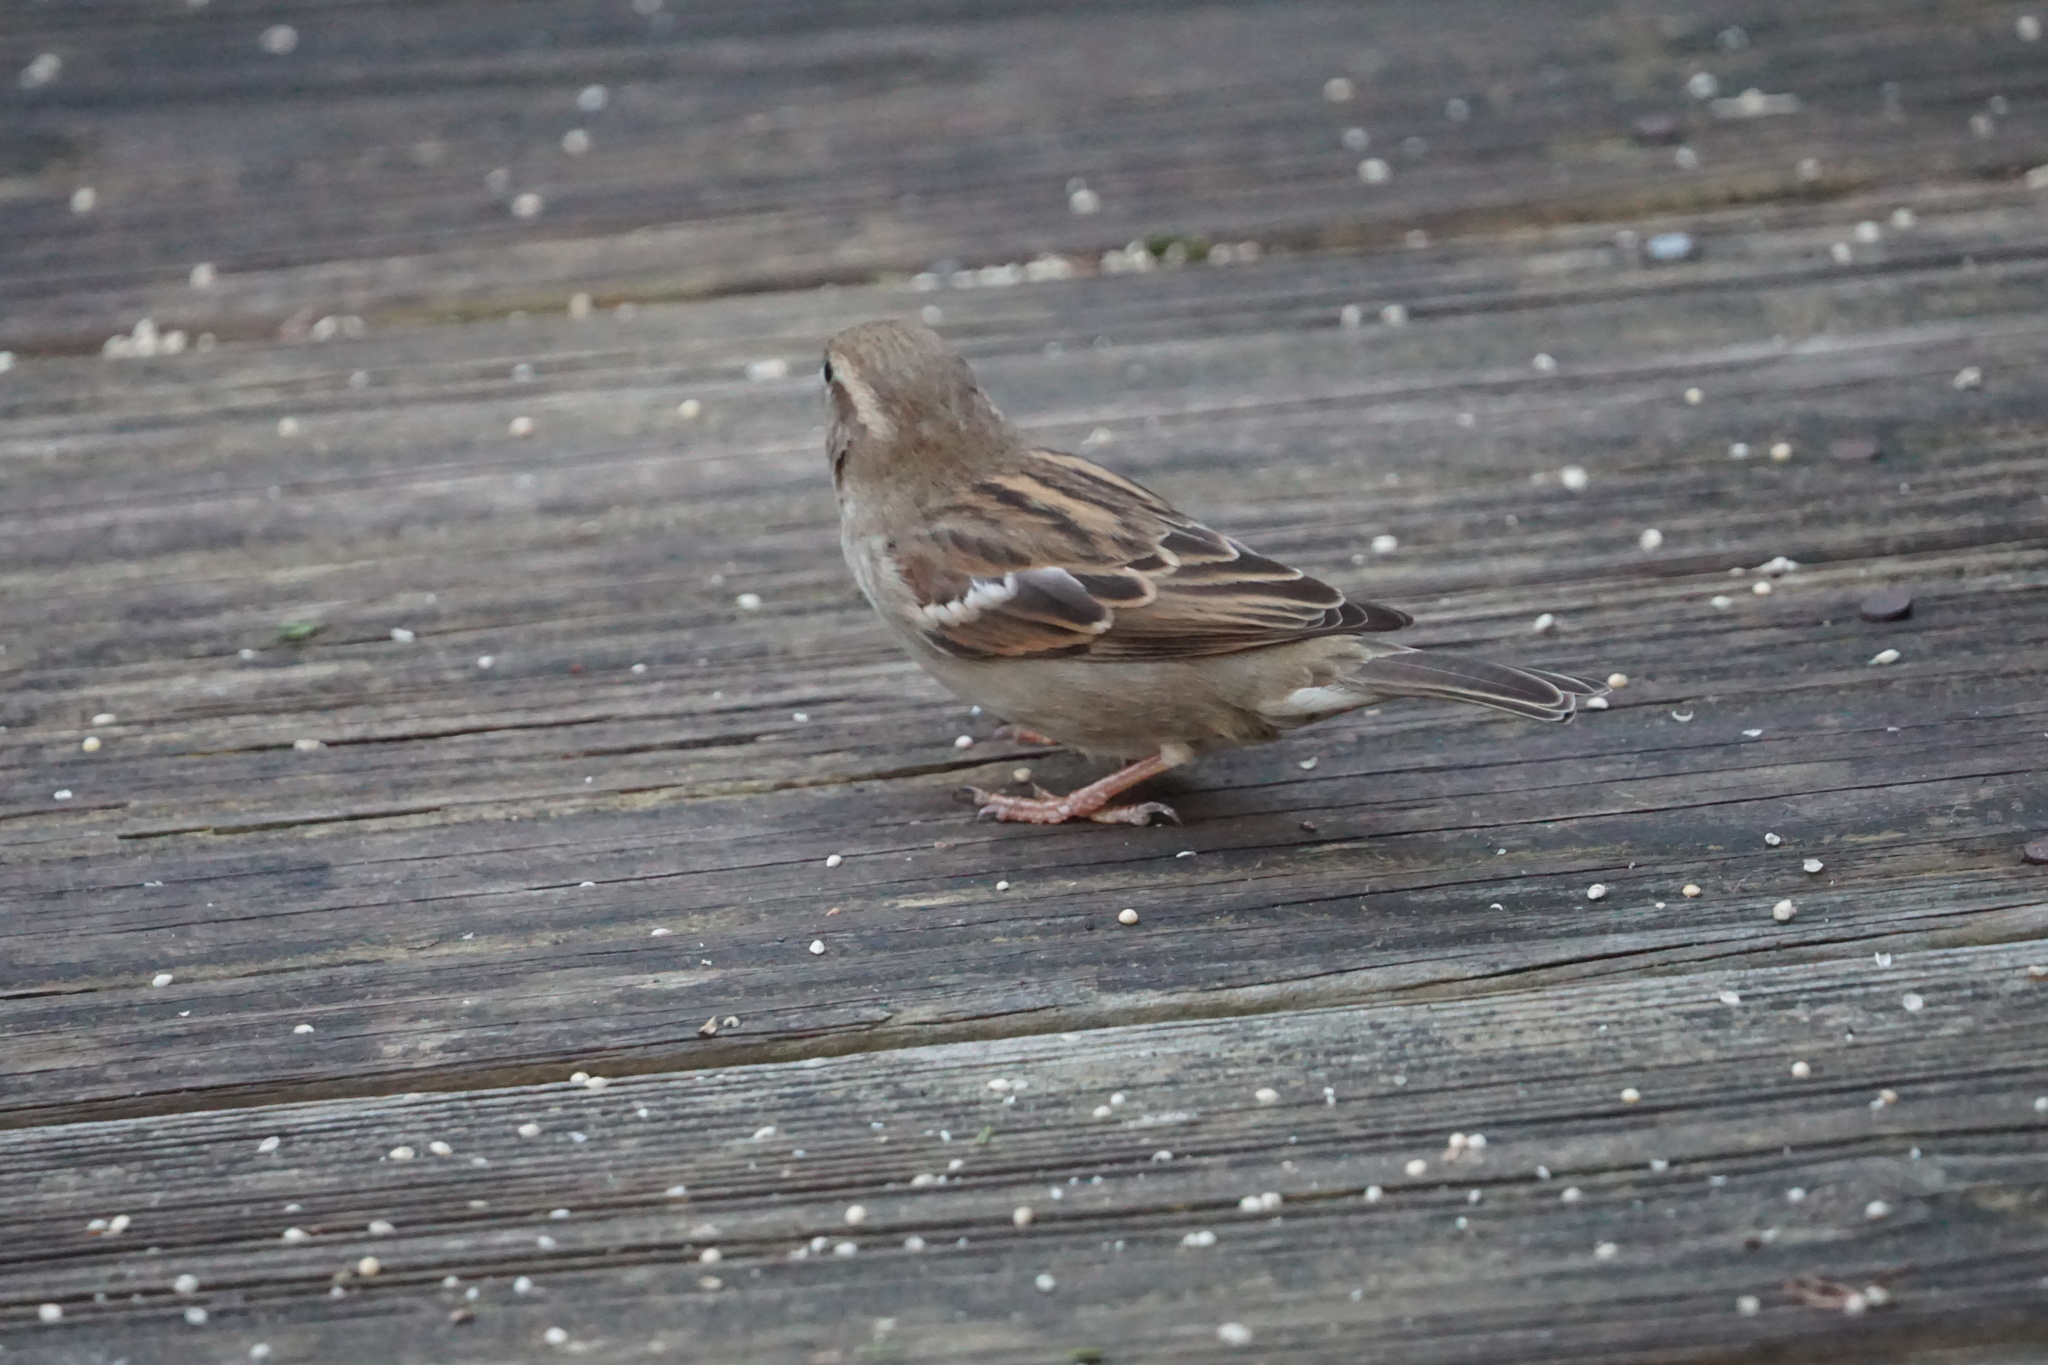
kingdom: Animalia
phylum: Chordata
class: Aves
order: Passeriformes
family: Passeridae
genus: Passer
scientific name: Passer domesticus
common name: House sparrow
